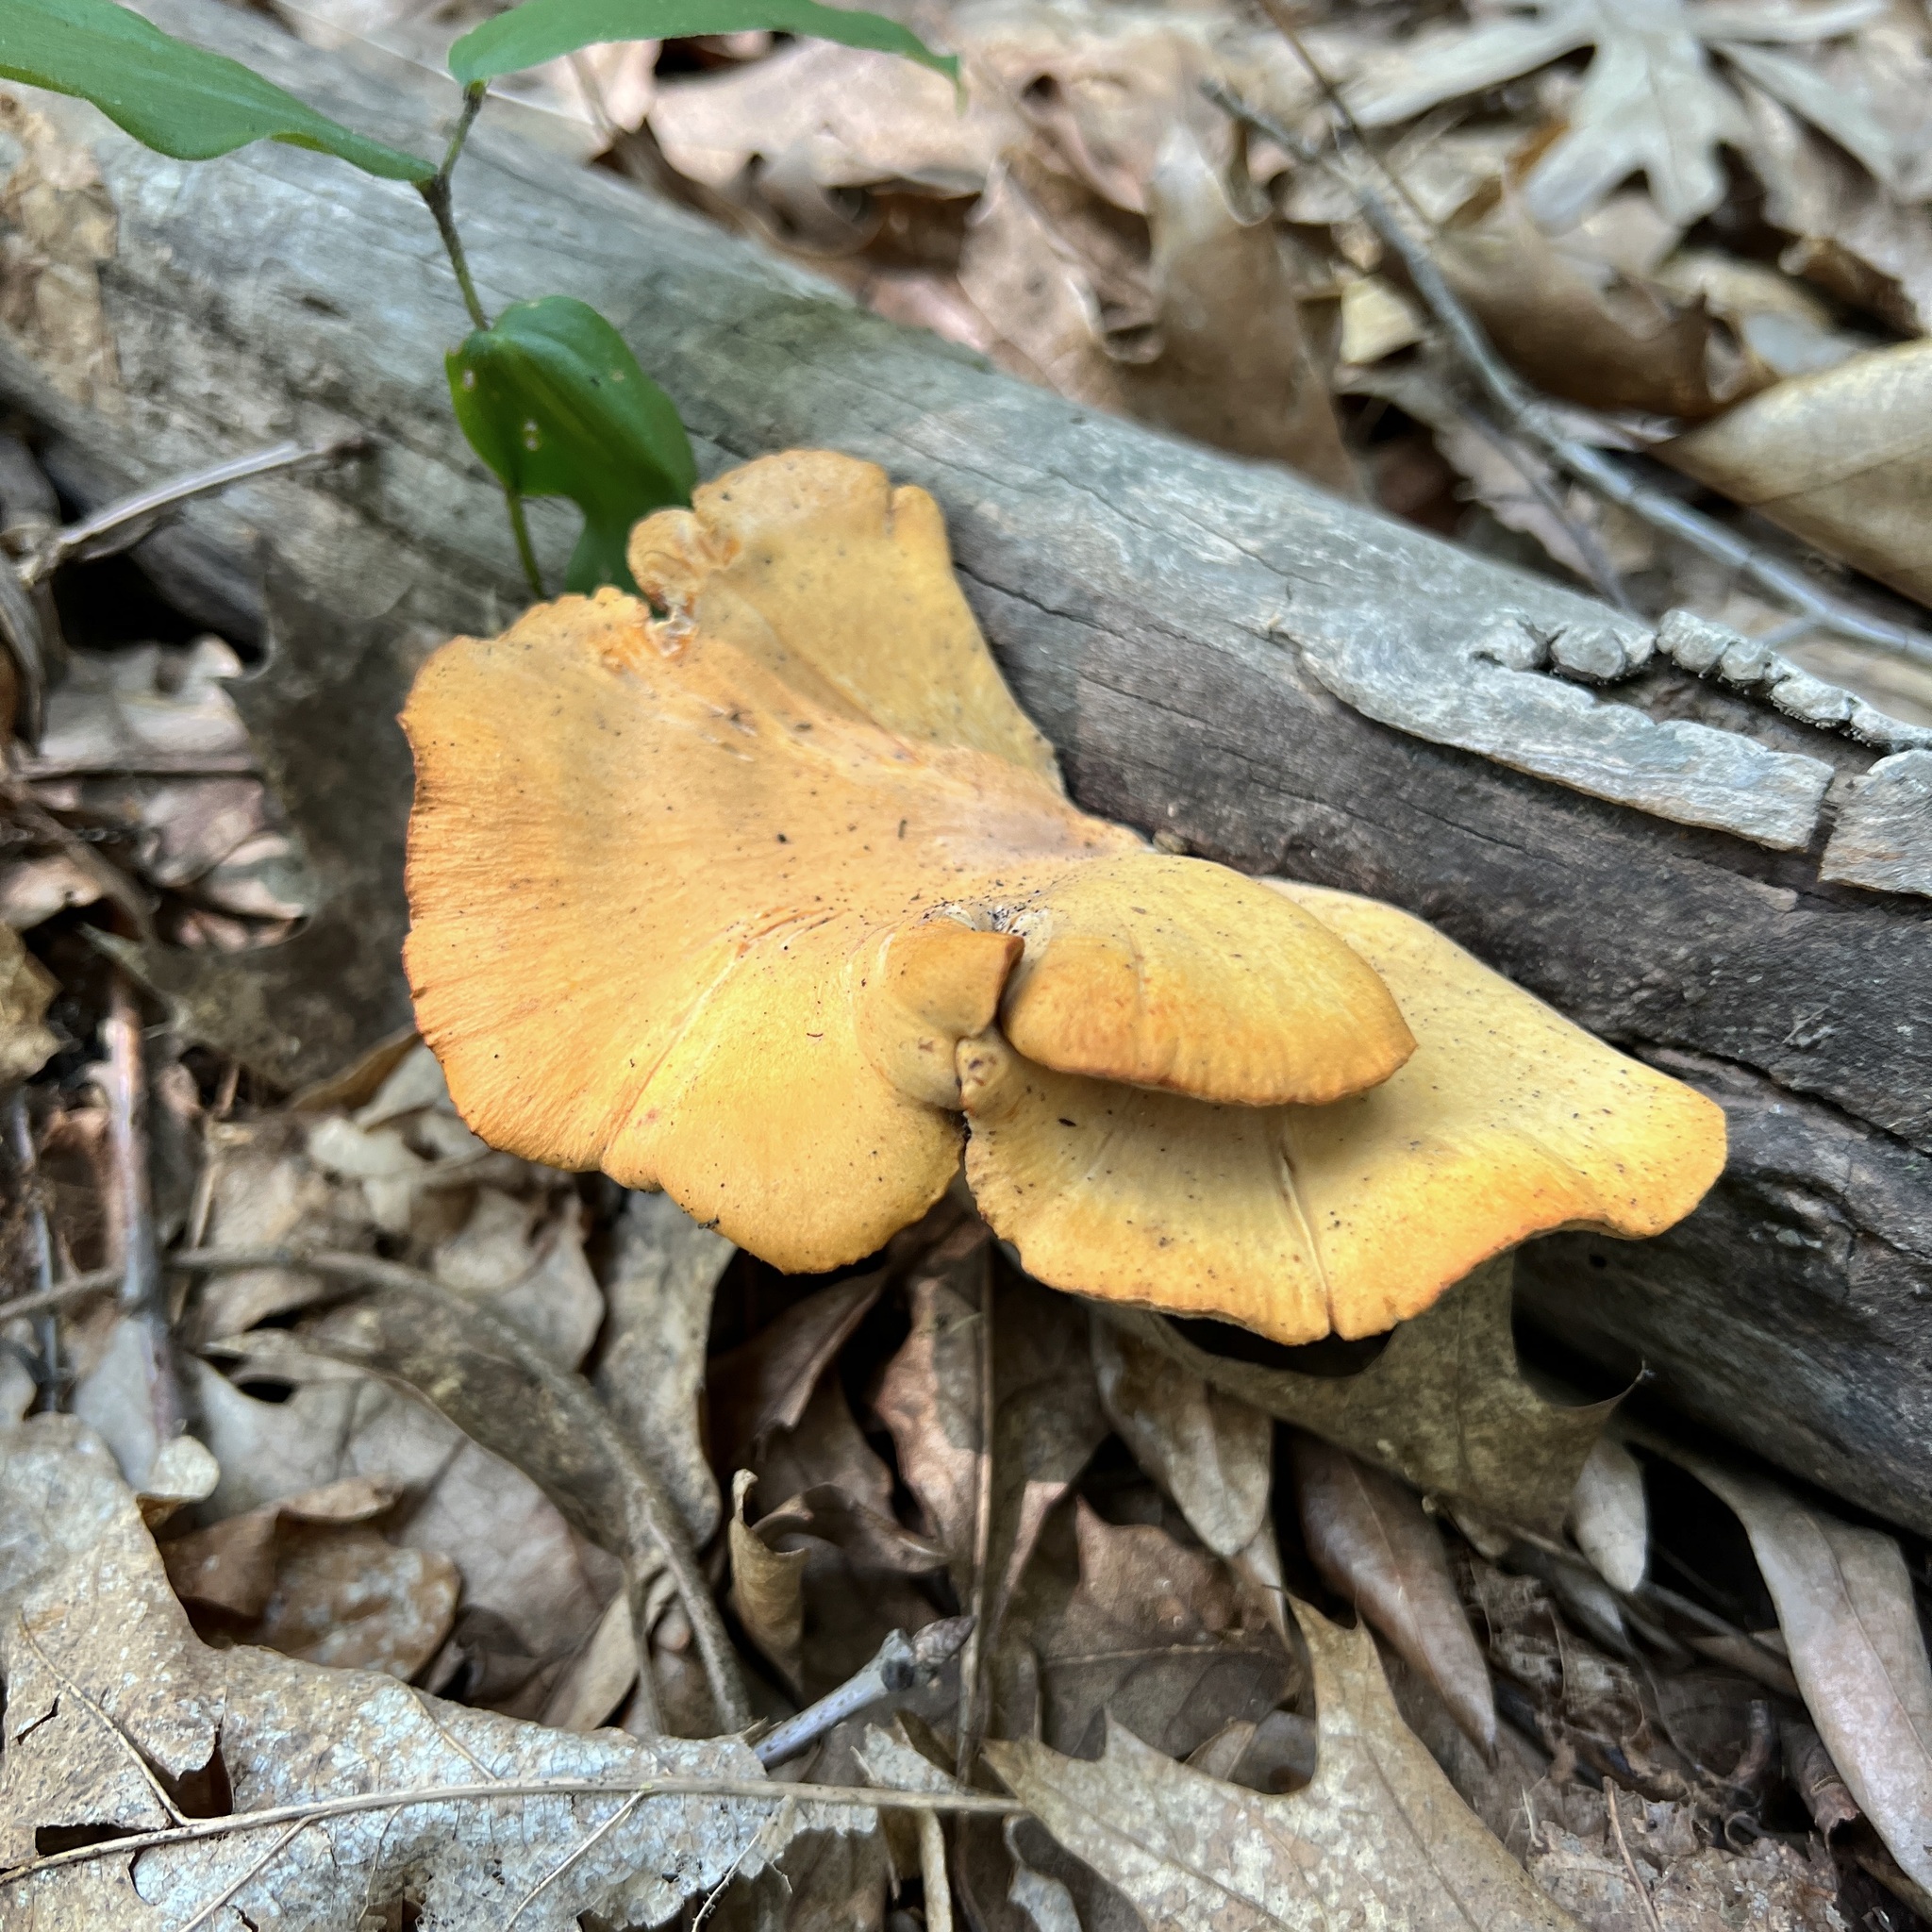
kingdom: Fungi
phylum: Basidiomycota
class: Agaricomycetes
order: Polyporales
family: Polyporaceae
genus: Cerioporus
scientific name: Cerioporus leptocephalus
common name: Blackfoot polypore
